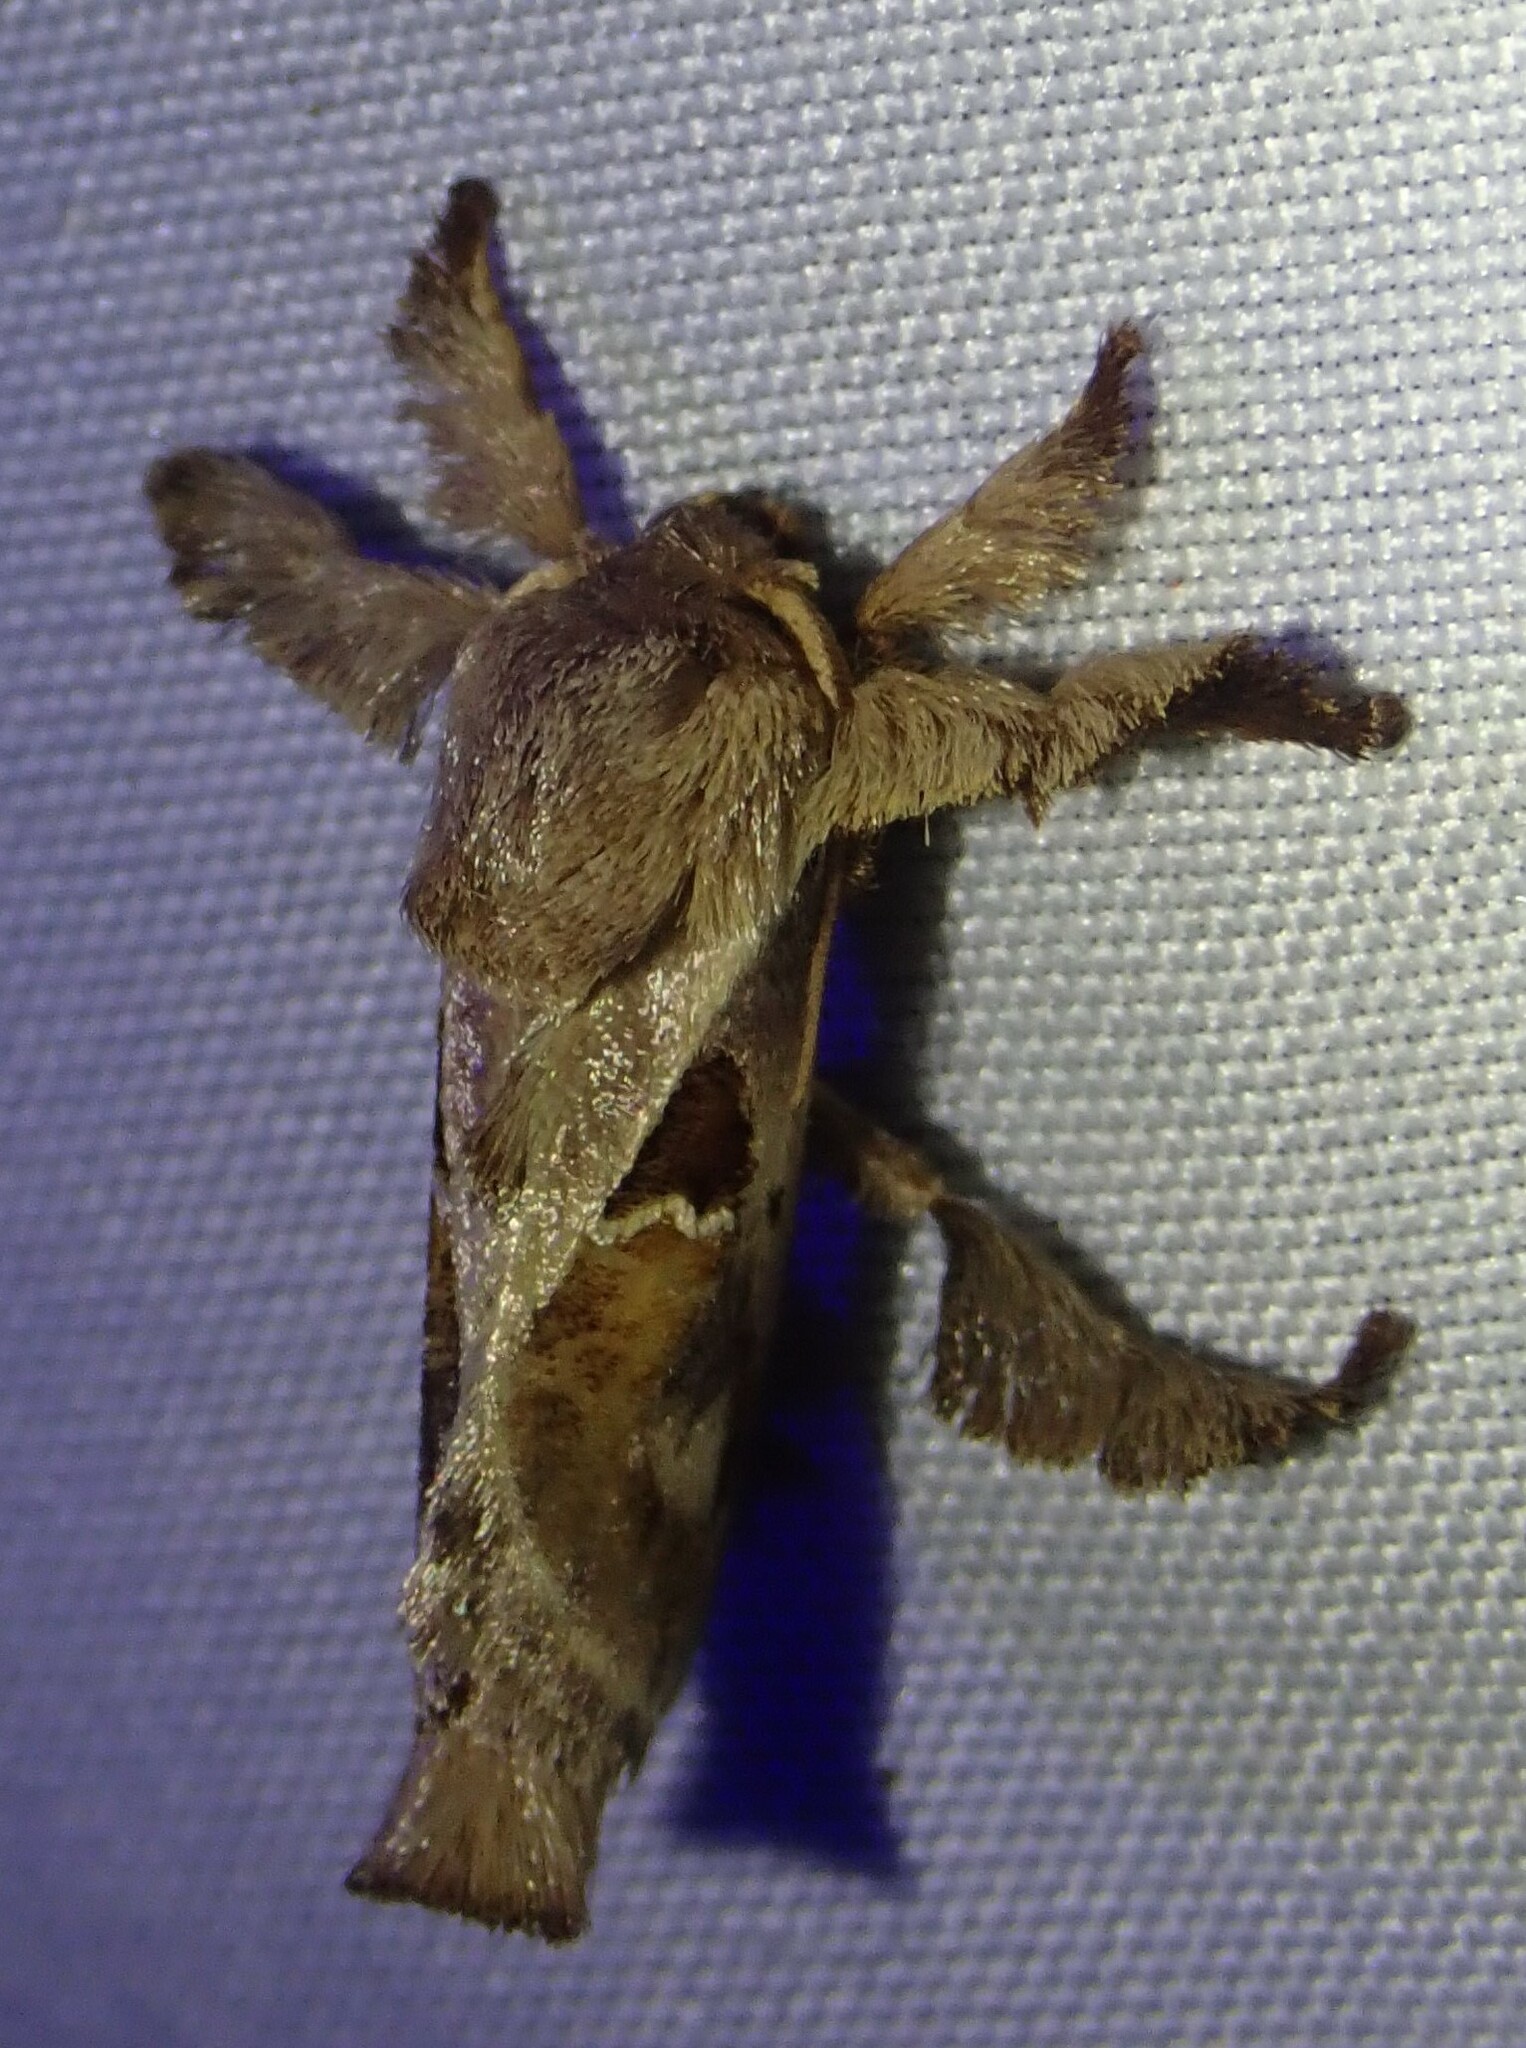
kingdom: Animalia
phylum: Arthropoda
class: Insecta
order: Lepidoptera
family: Limacodidae
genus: Euclea
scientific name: Euclea distrahens
